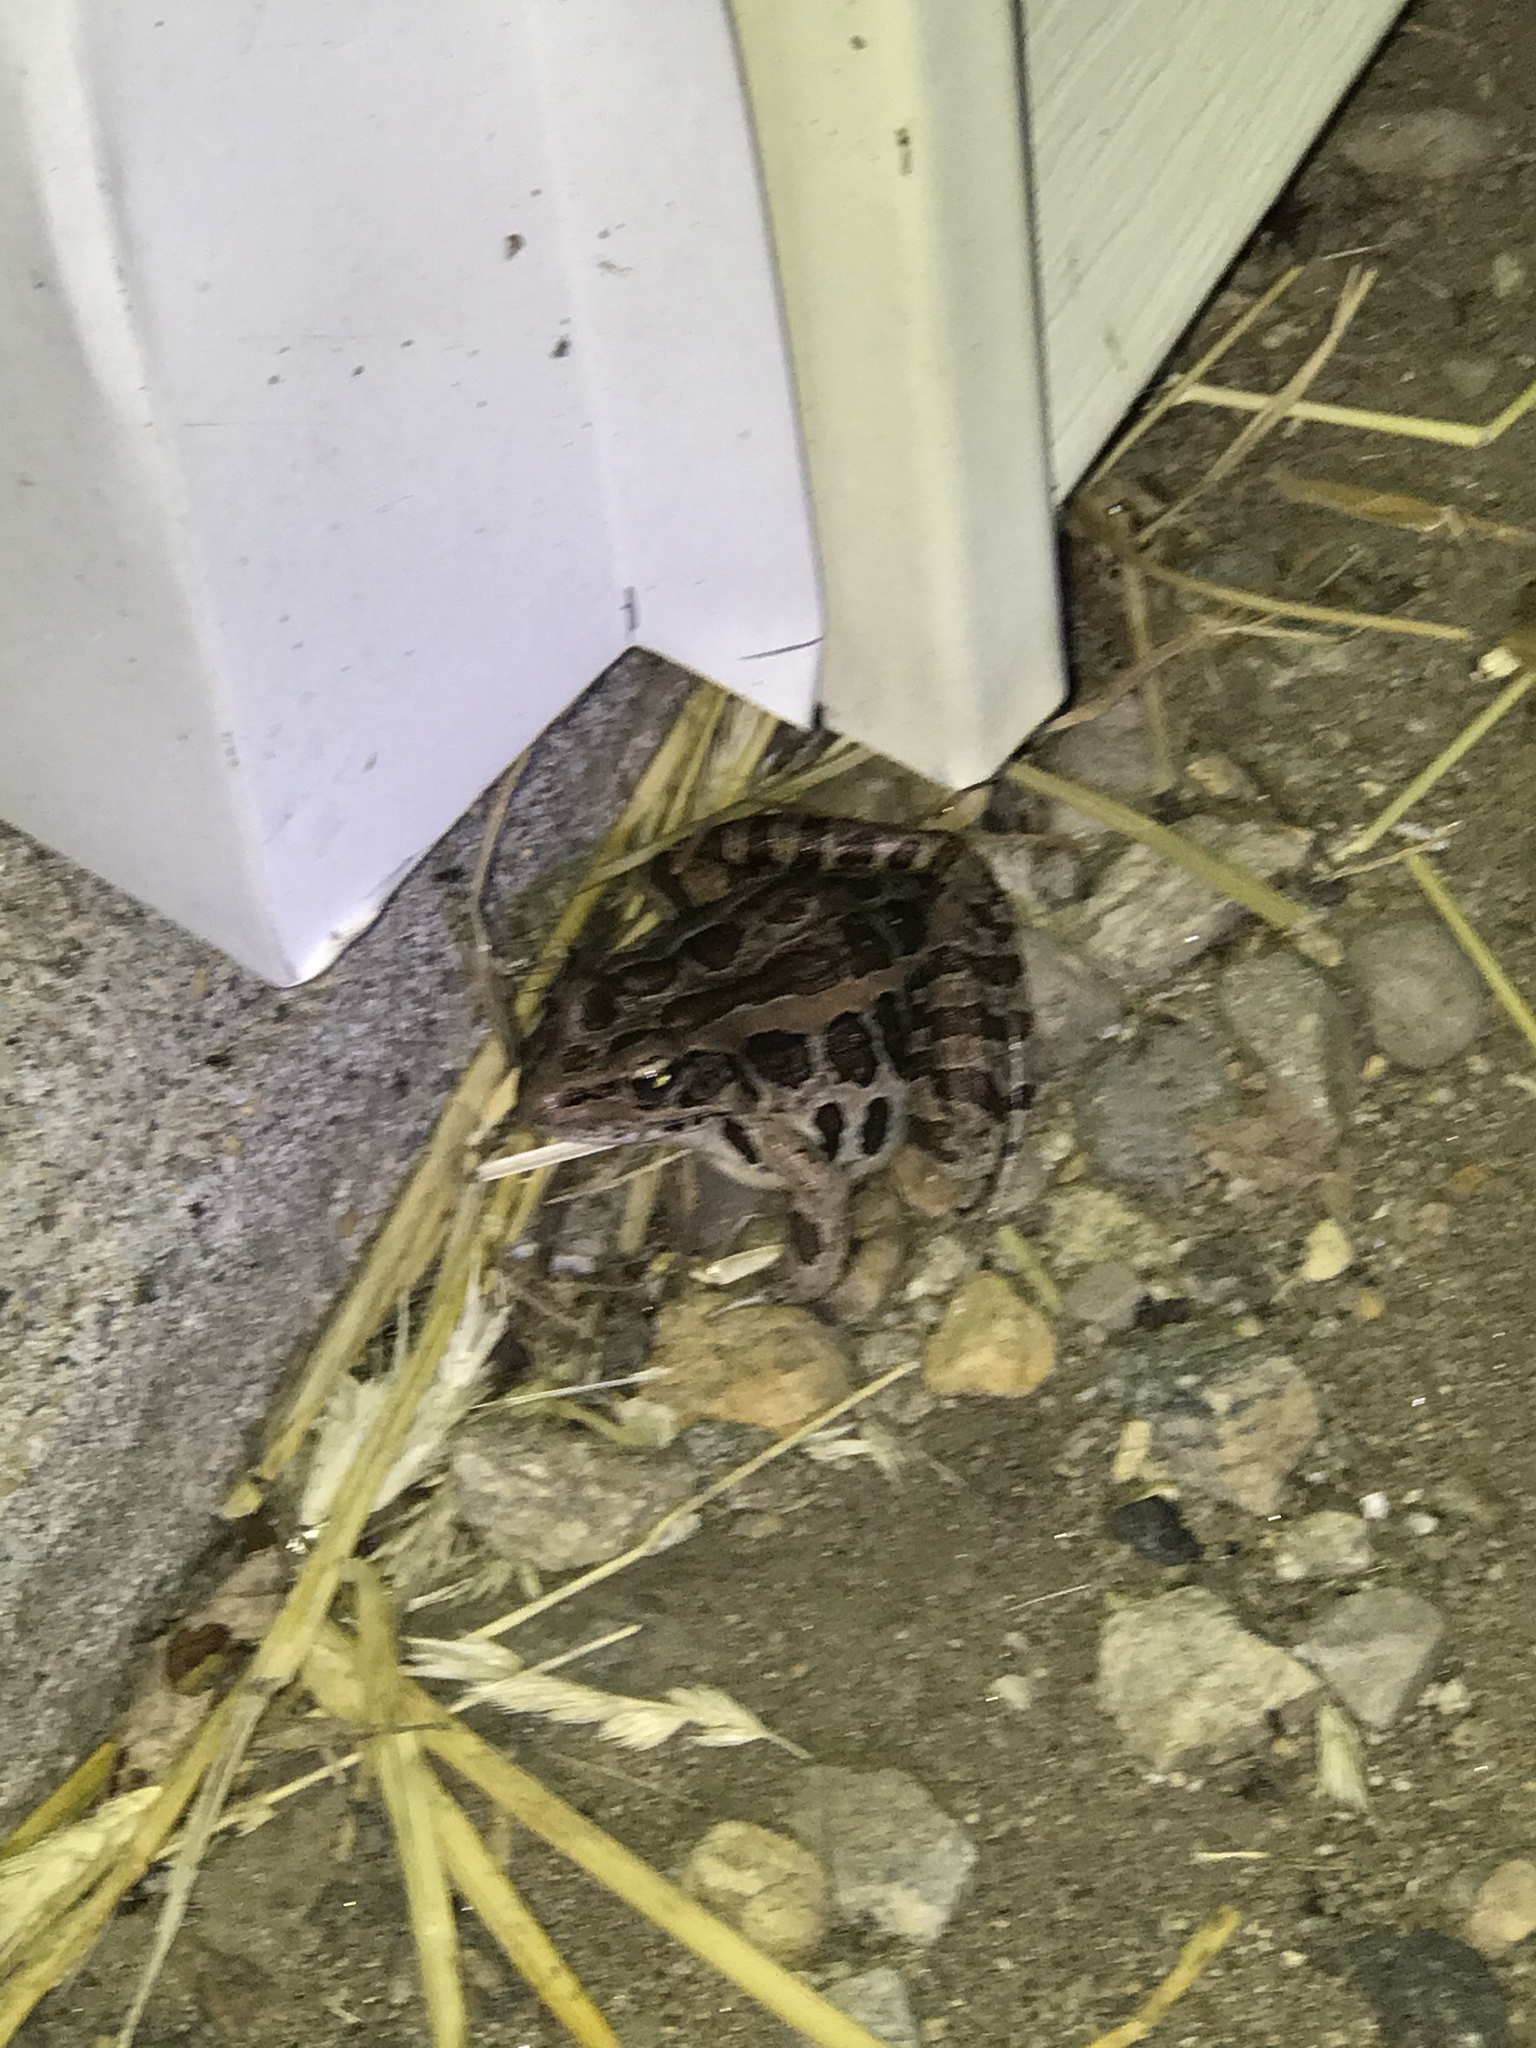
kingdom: Animalia
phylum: Chordata
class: Amphibia
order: Anura
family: Ranidae
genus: Lithobates
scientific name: Lithobates palustris
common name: Pickerel frog
